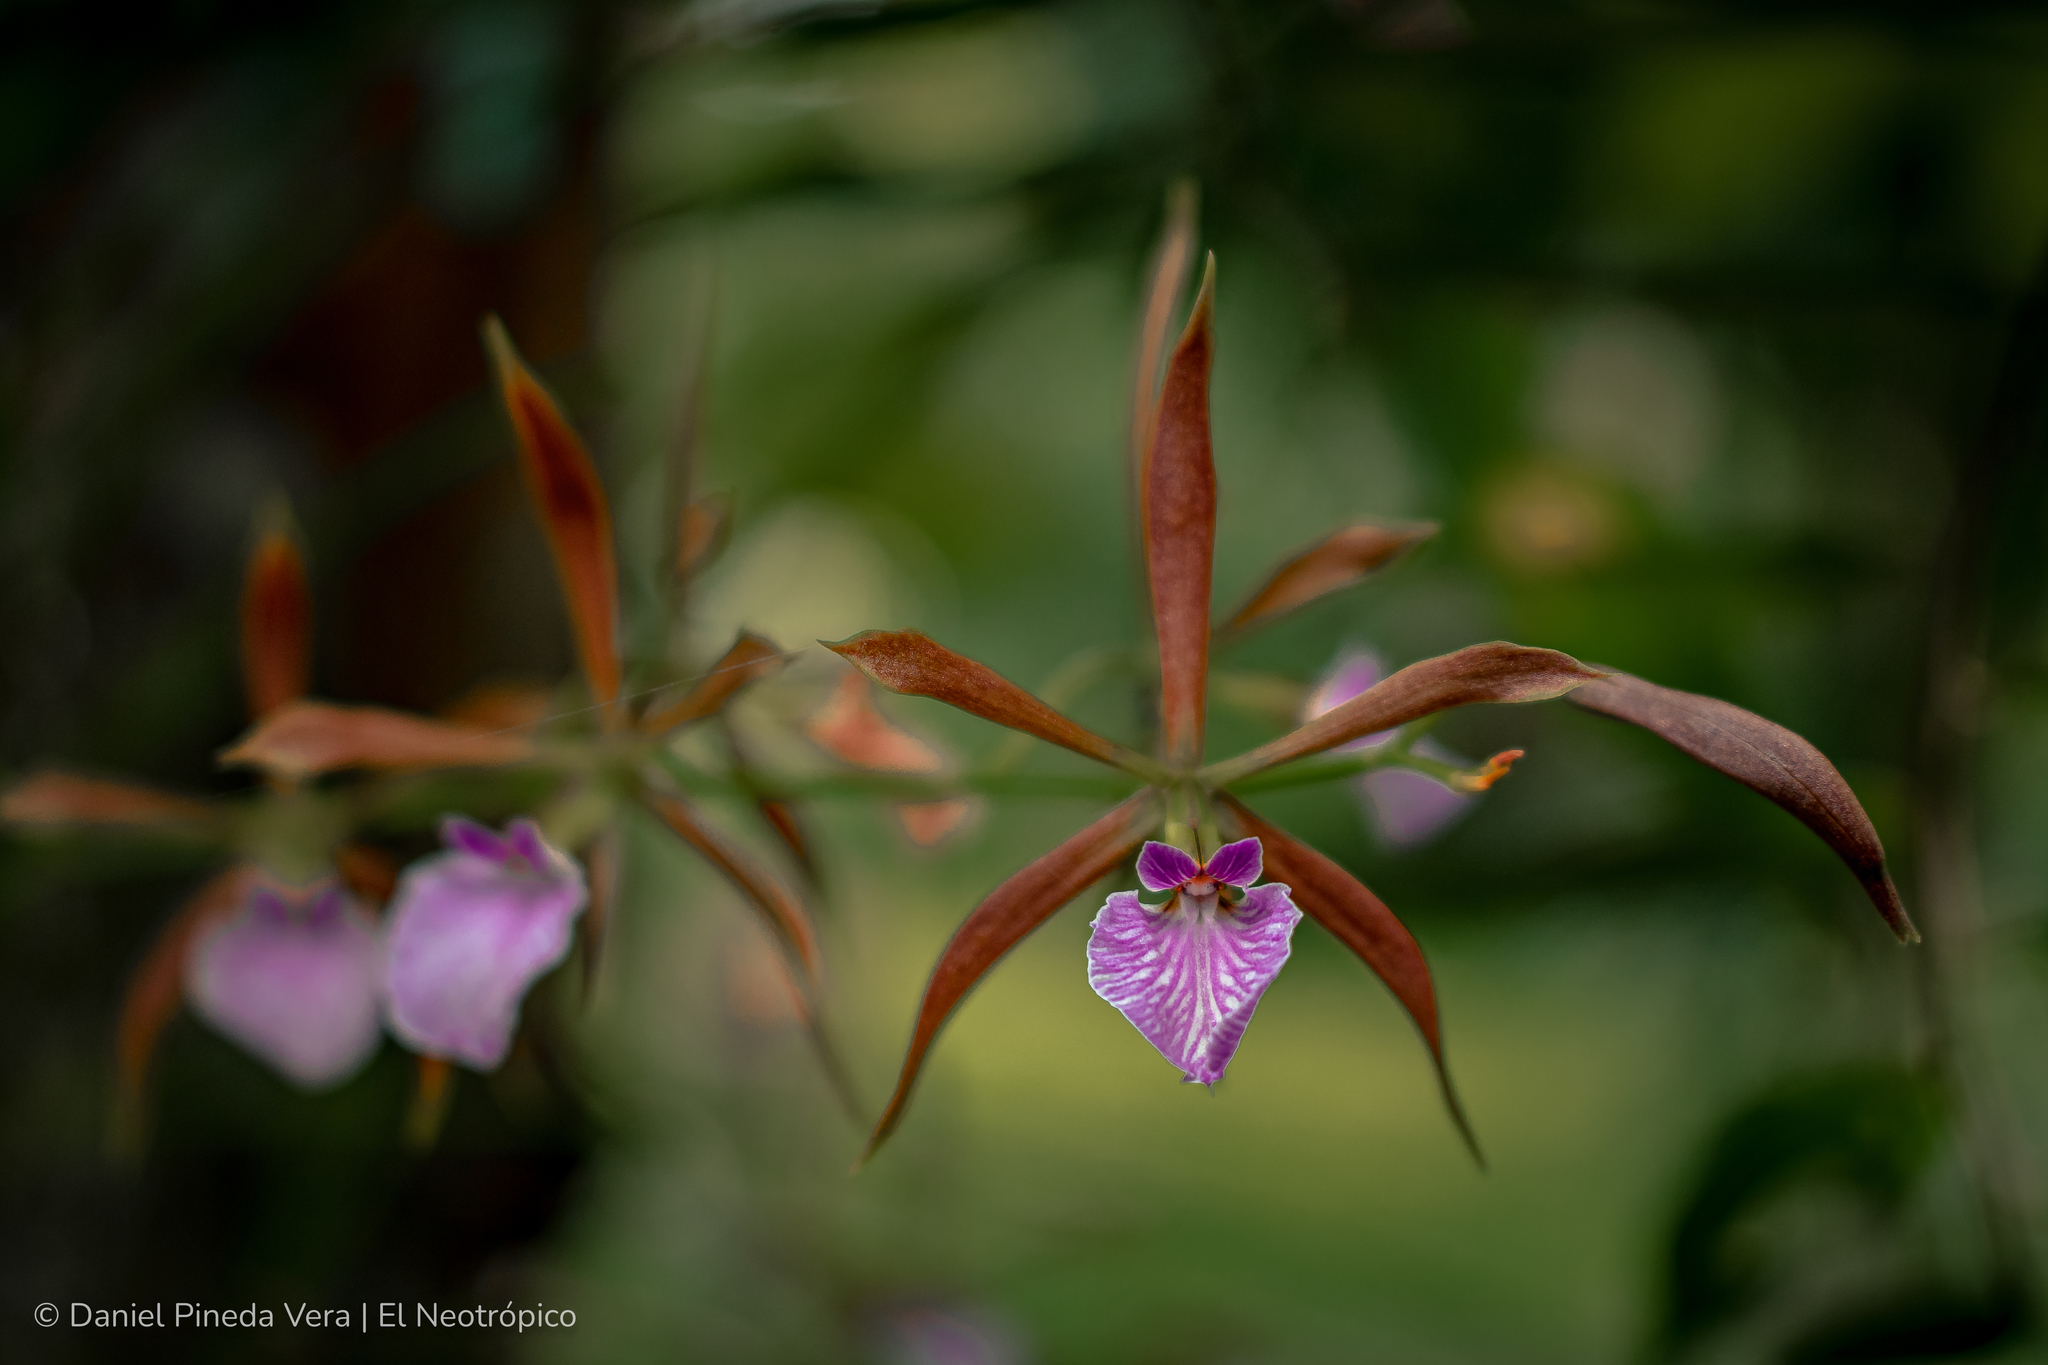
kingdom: Plantae
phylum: Tracheophyta
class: Liliopsida
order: Asparagales
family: Orchidaceae
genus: Encyclia
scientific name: Encyclia bractescens
